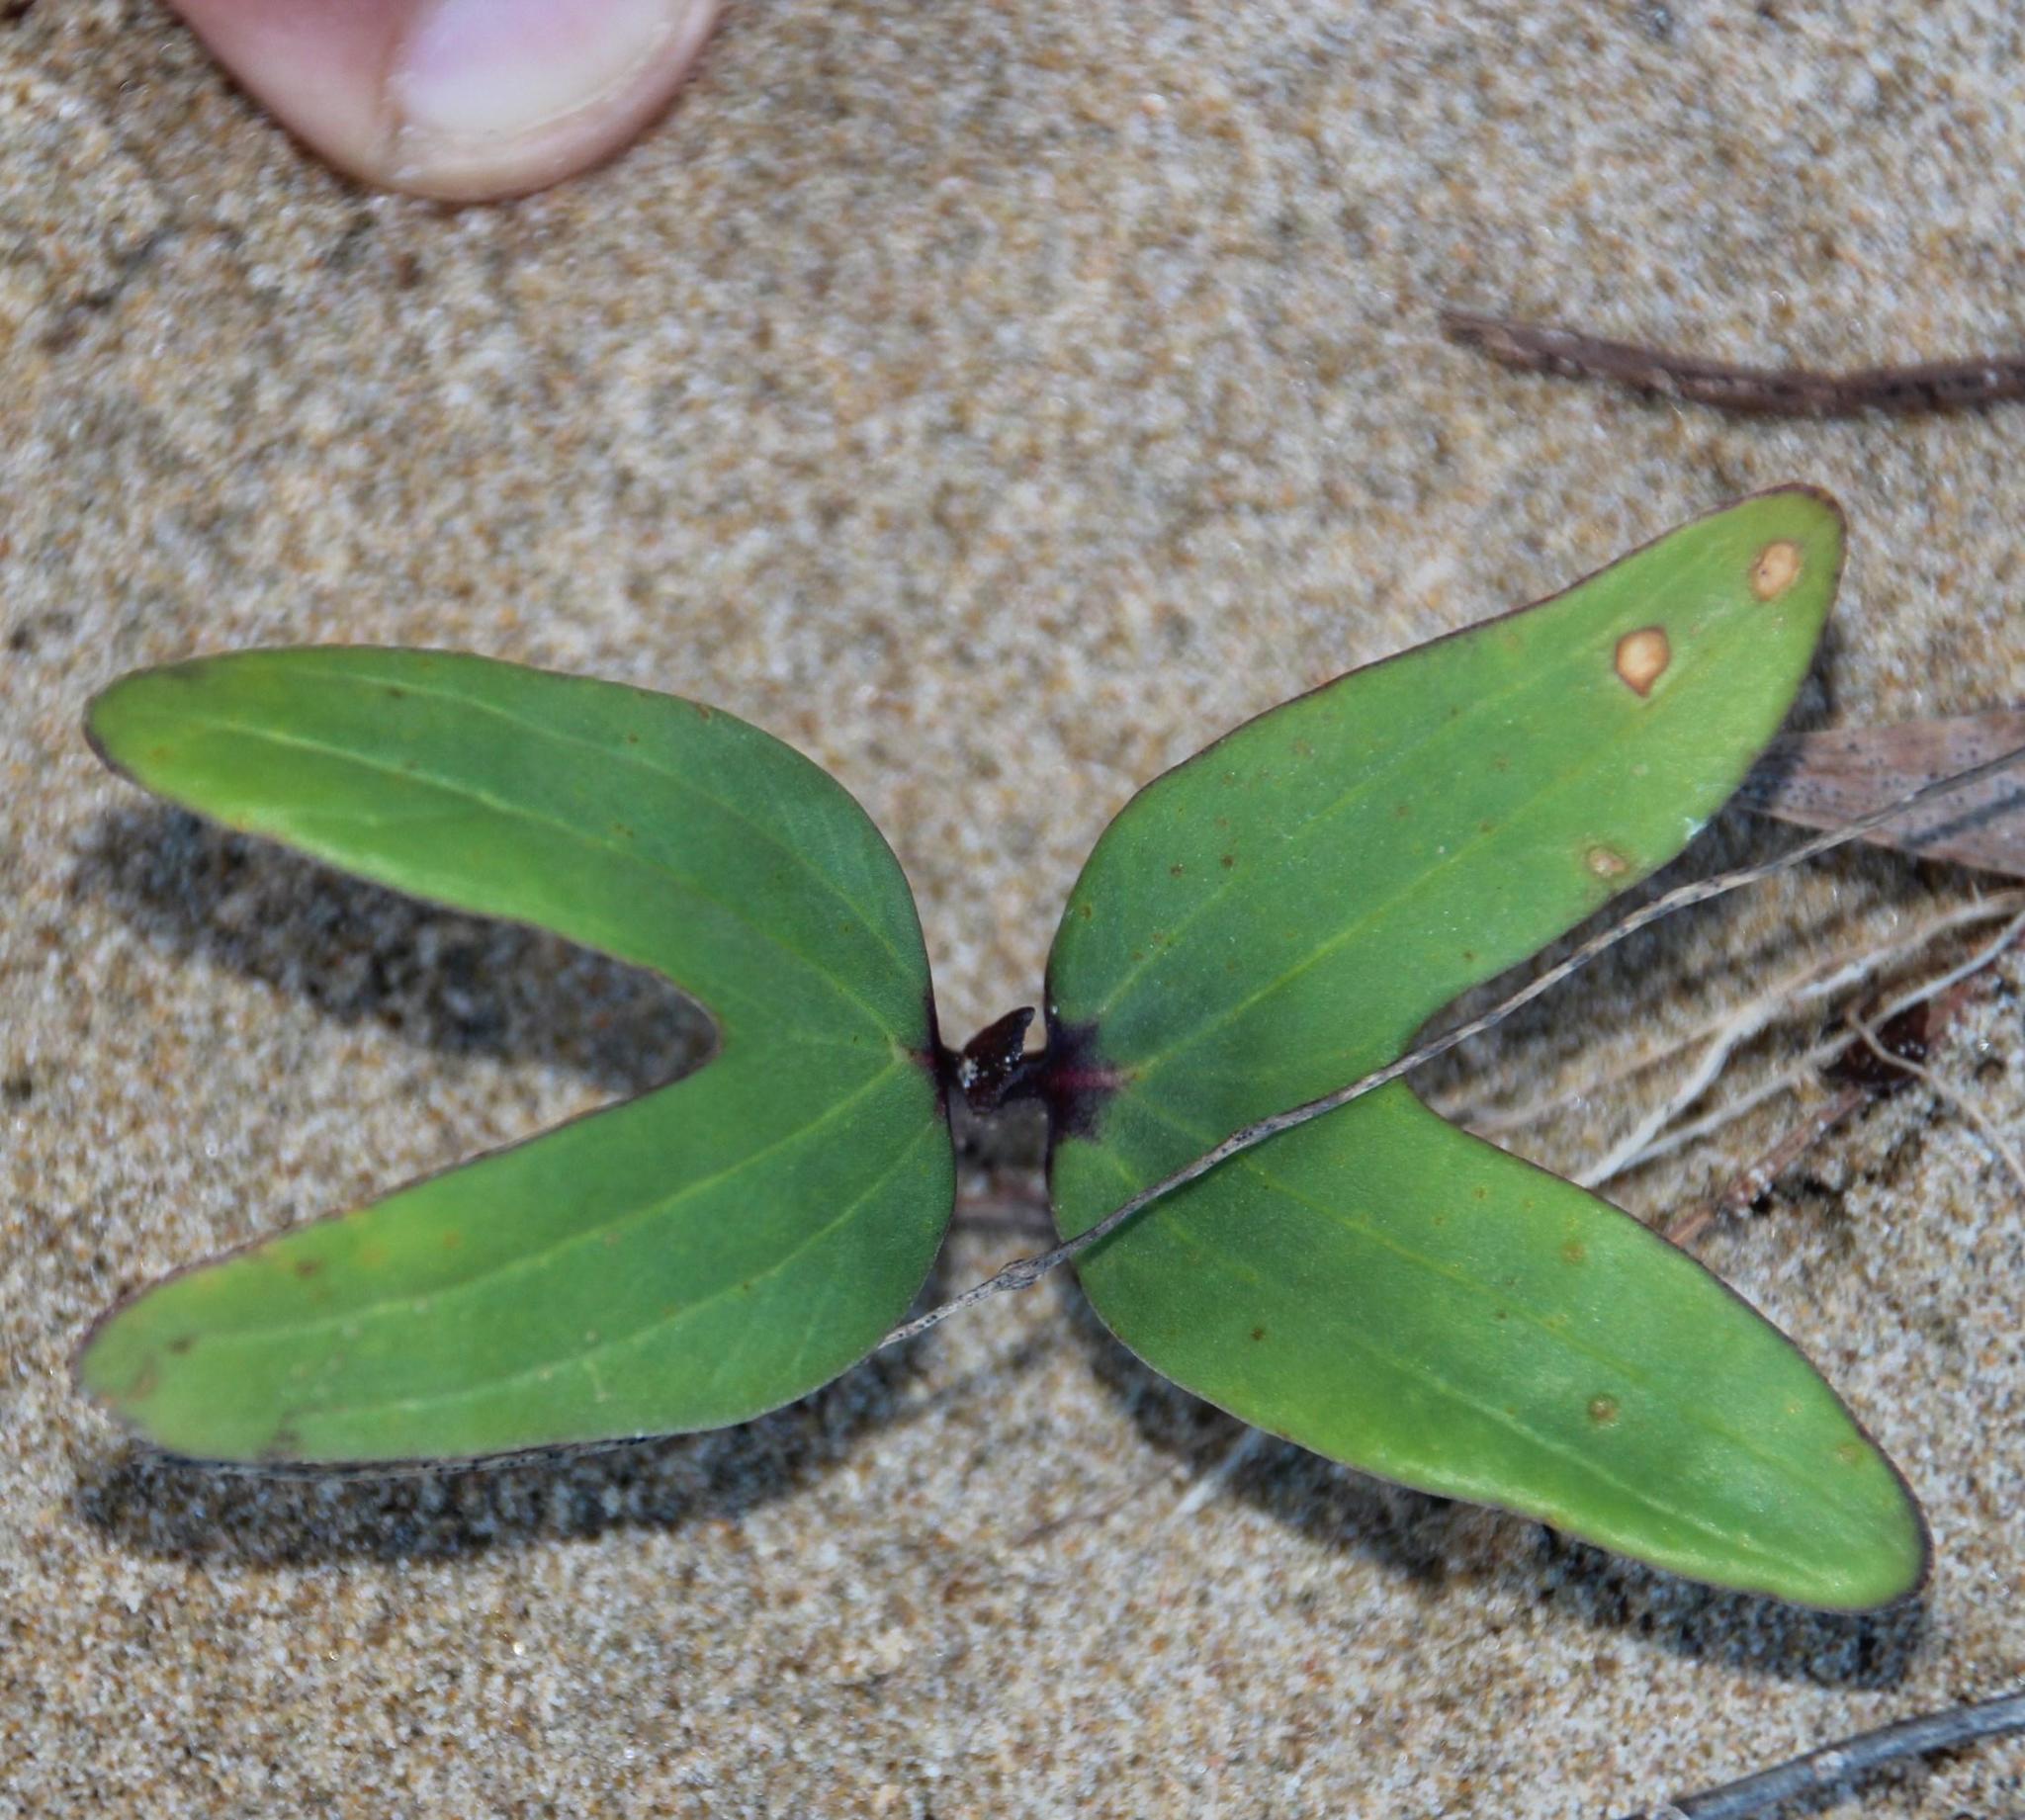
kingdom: Plantae
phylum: Tracheophyta
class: Magnoliopsida
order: Solanales
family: Convolvulaceae
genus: Ipomoea
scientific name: Ipomoea pes-caprae
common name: Beach morning glory
